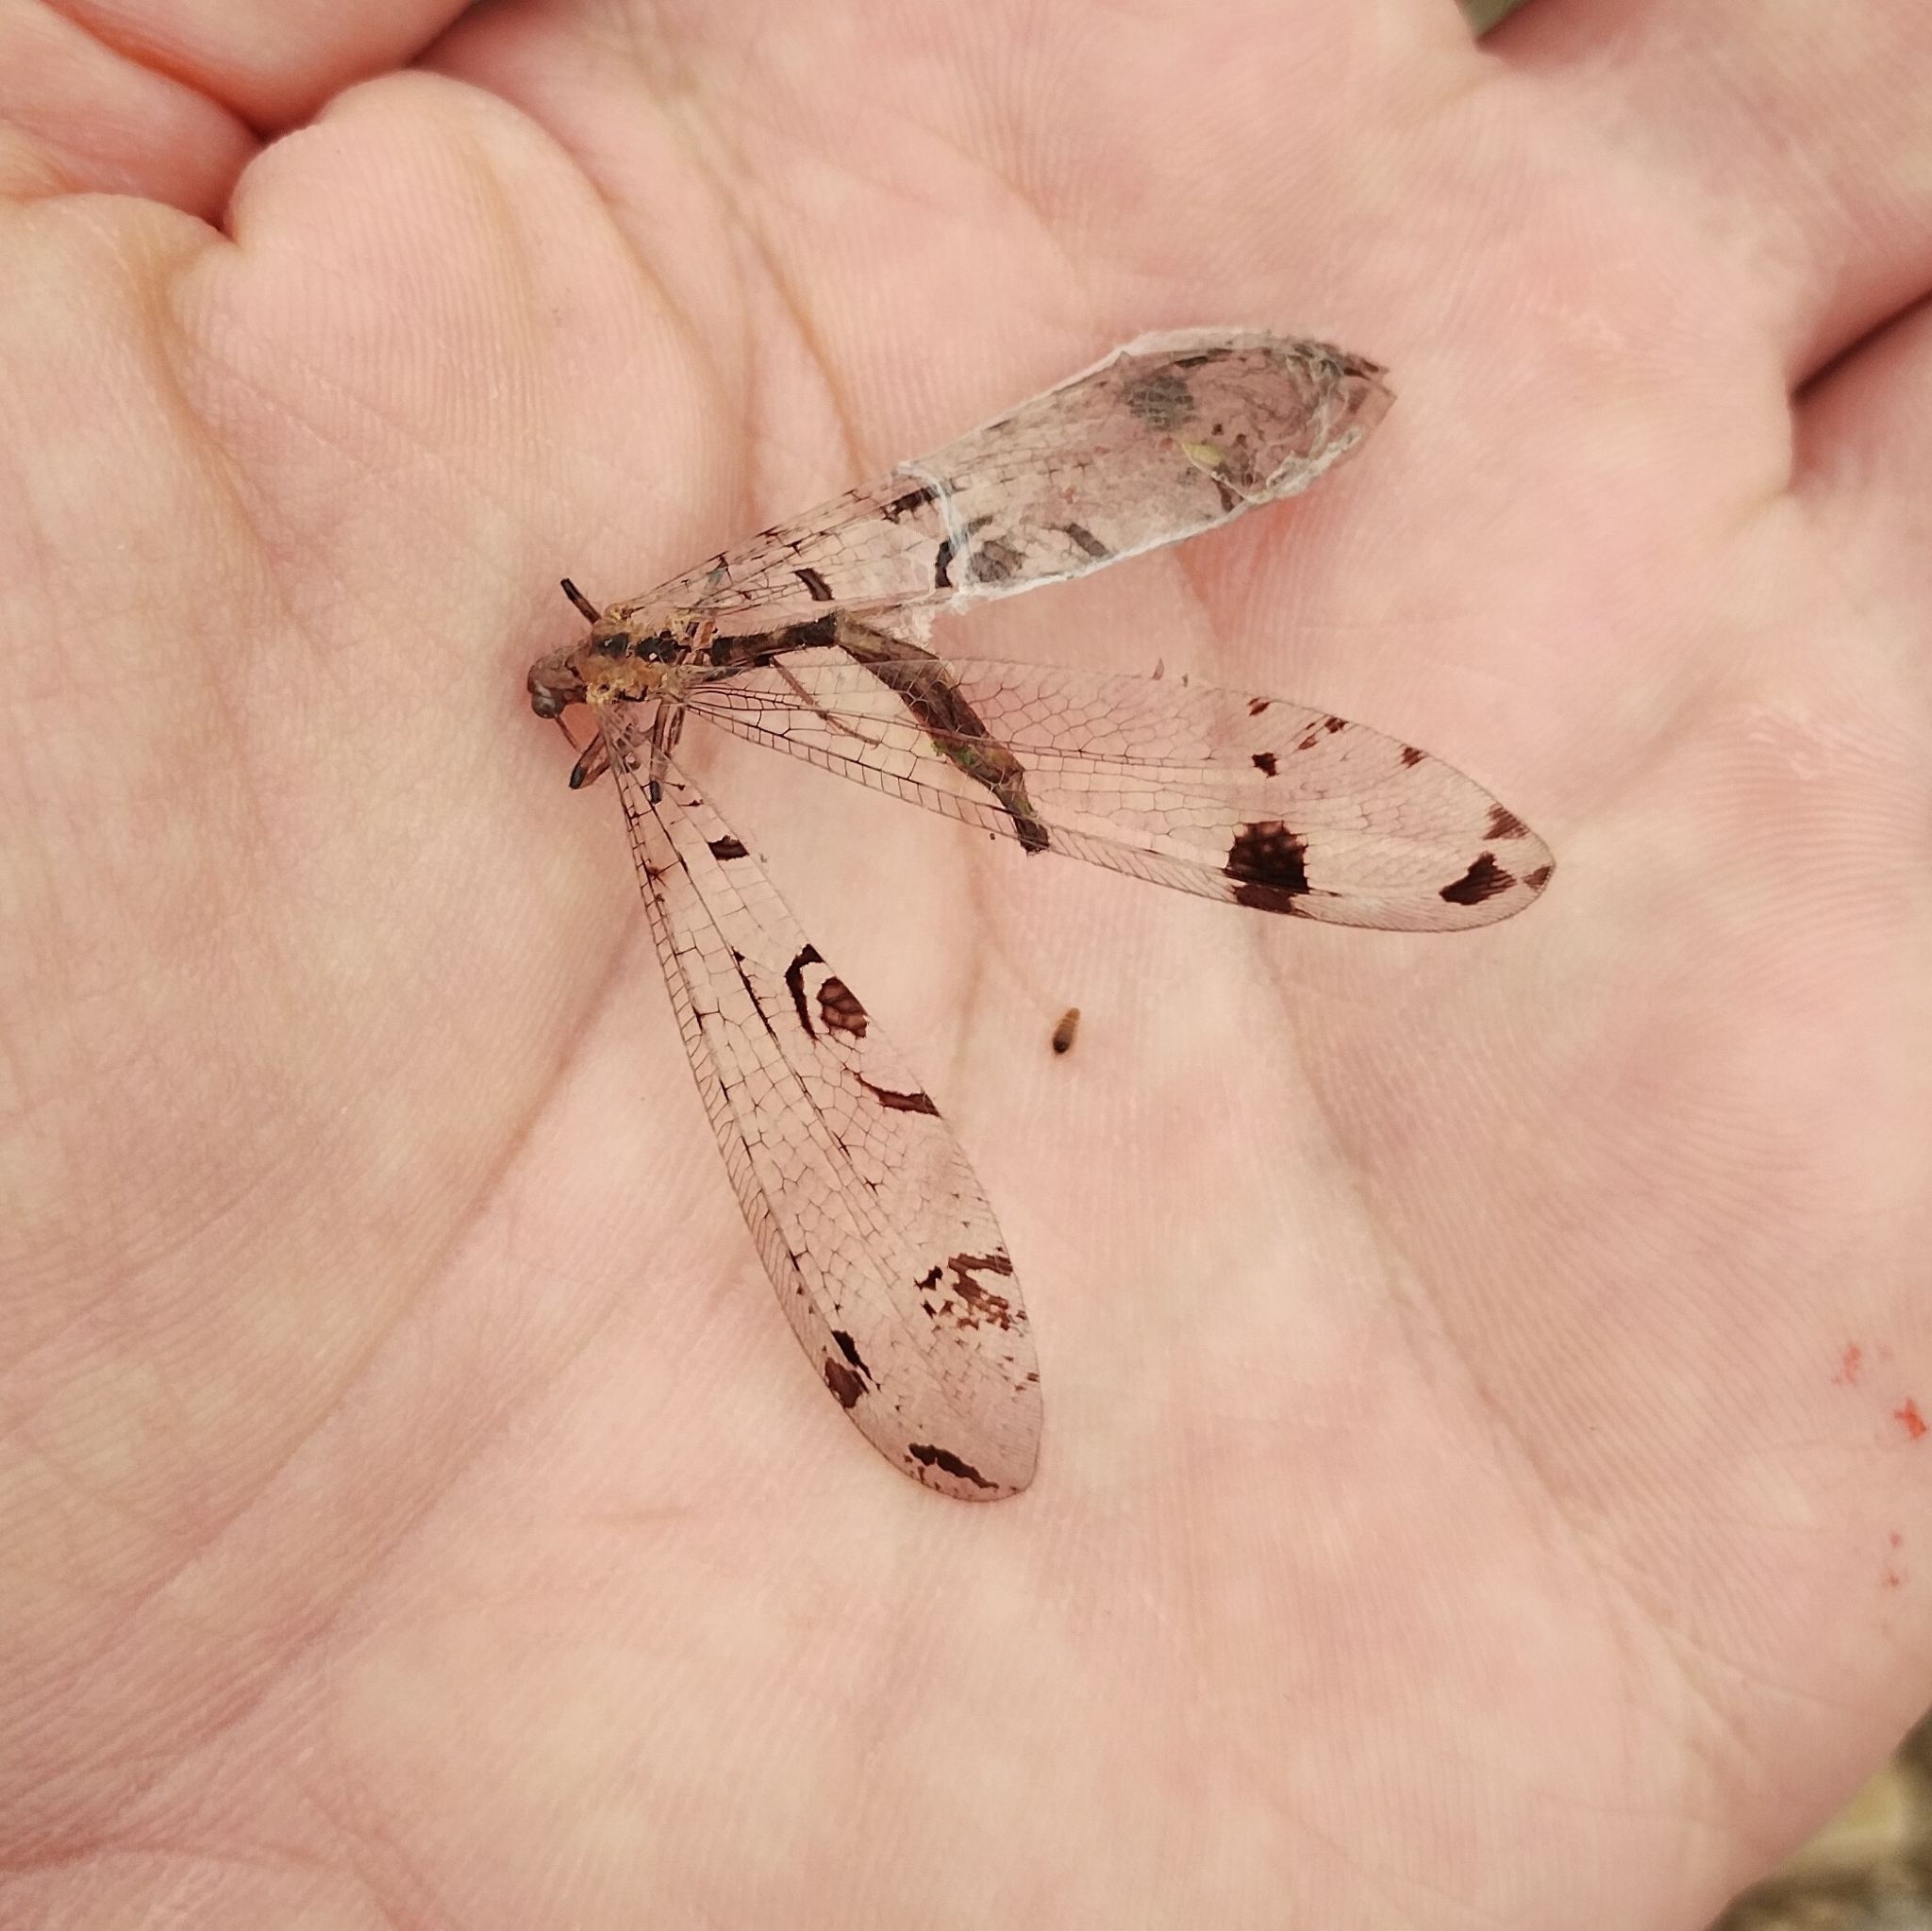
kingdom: Animalia
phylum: Arthropoda
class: Insecta
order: Neuroptera
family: Myrmeleontidae
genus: Dendroleon
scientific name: Dendroleon pantherinus
